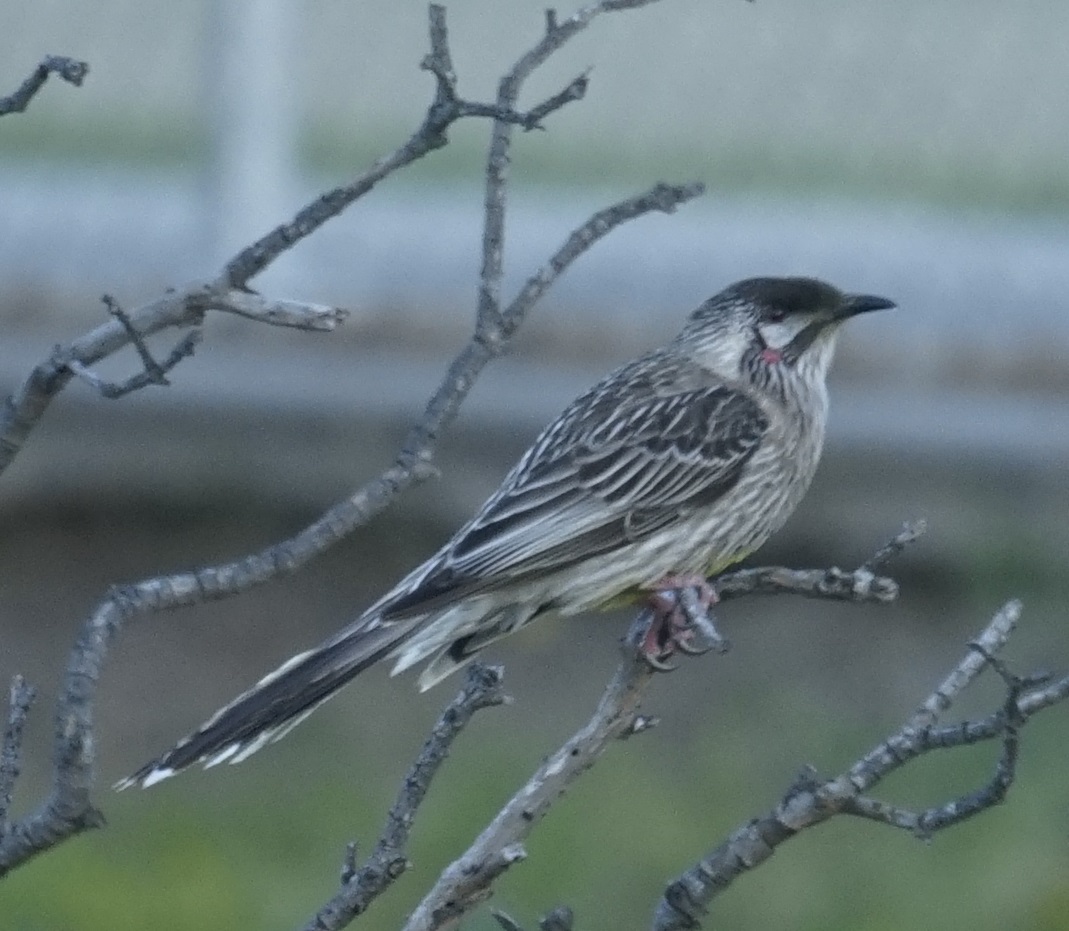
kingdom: Animalia
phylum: Chordata
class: Aves
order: Passeriformes
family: Meliphagidae
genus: Anthochaera
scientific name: Anthochaera carunculata
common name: Red wattlebird
